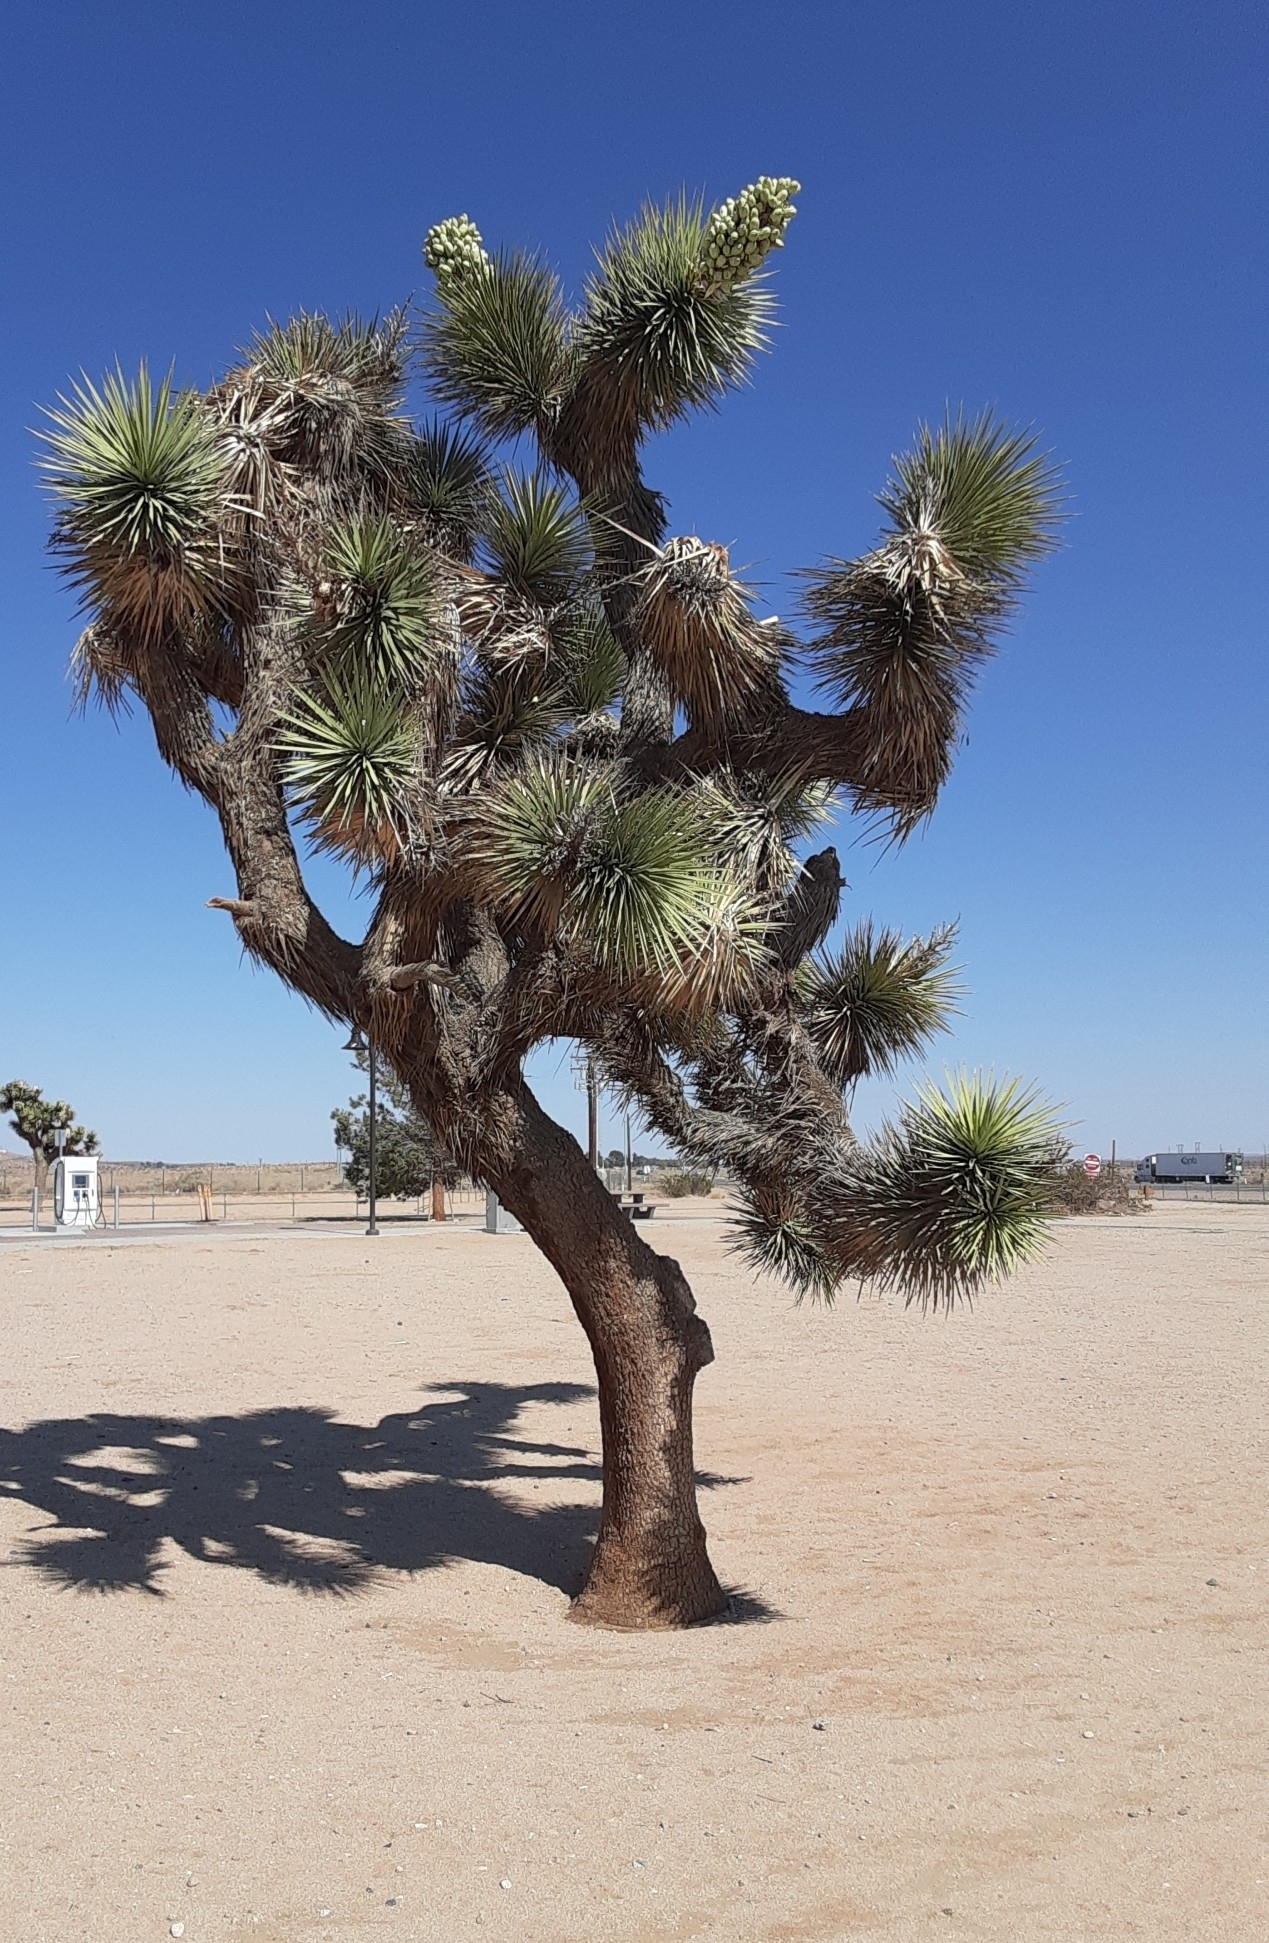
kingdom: Plantae
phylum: Tracheophyta
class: Liliopsida
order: Asparagales
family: Asparagaceae
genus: Yucca
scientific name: Yucca brevifolia
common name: Joshua tree
